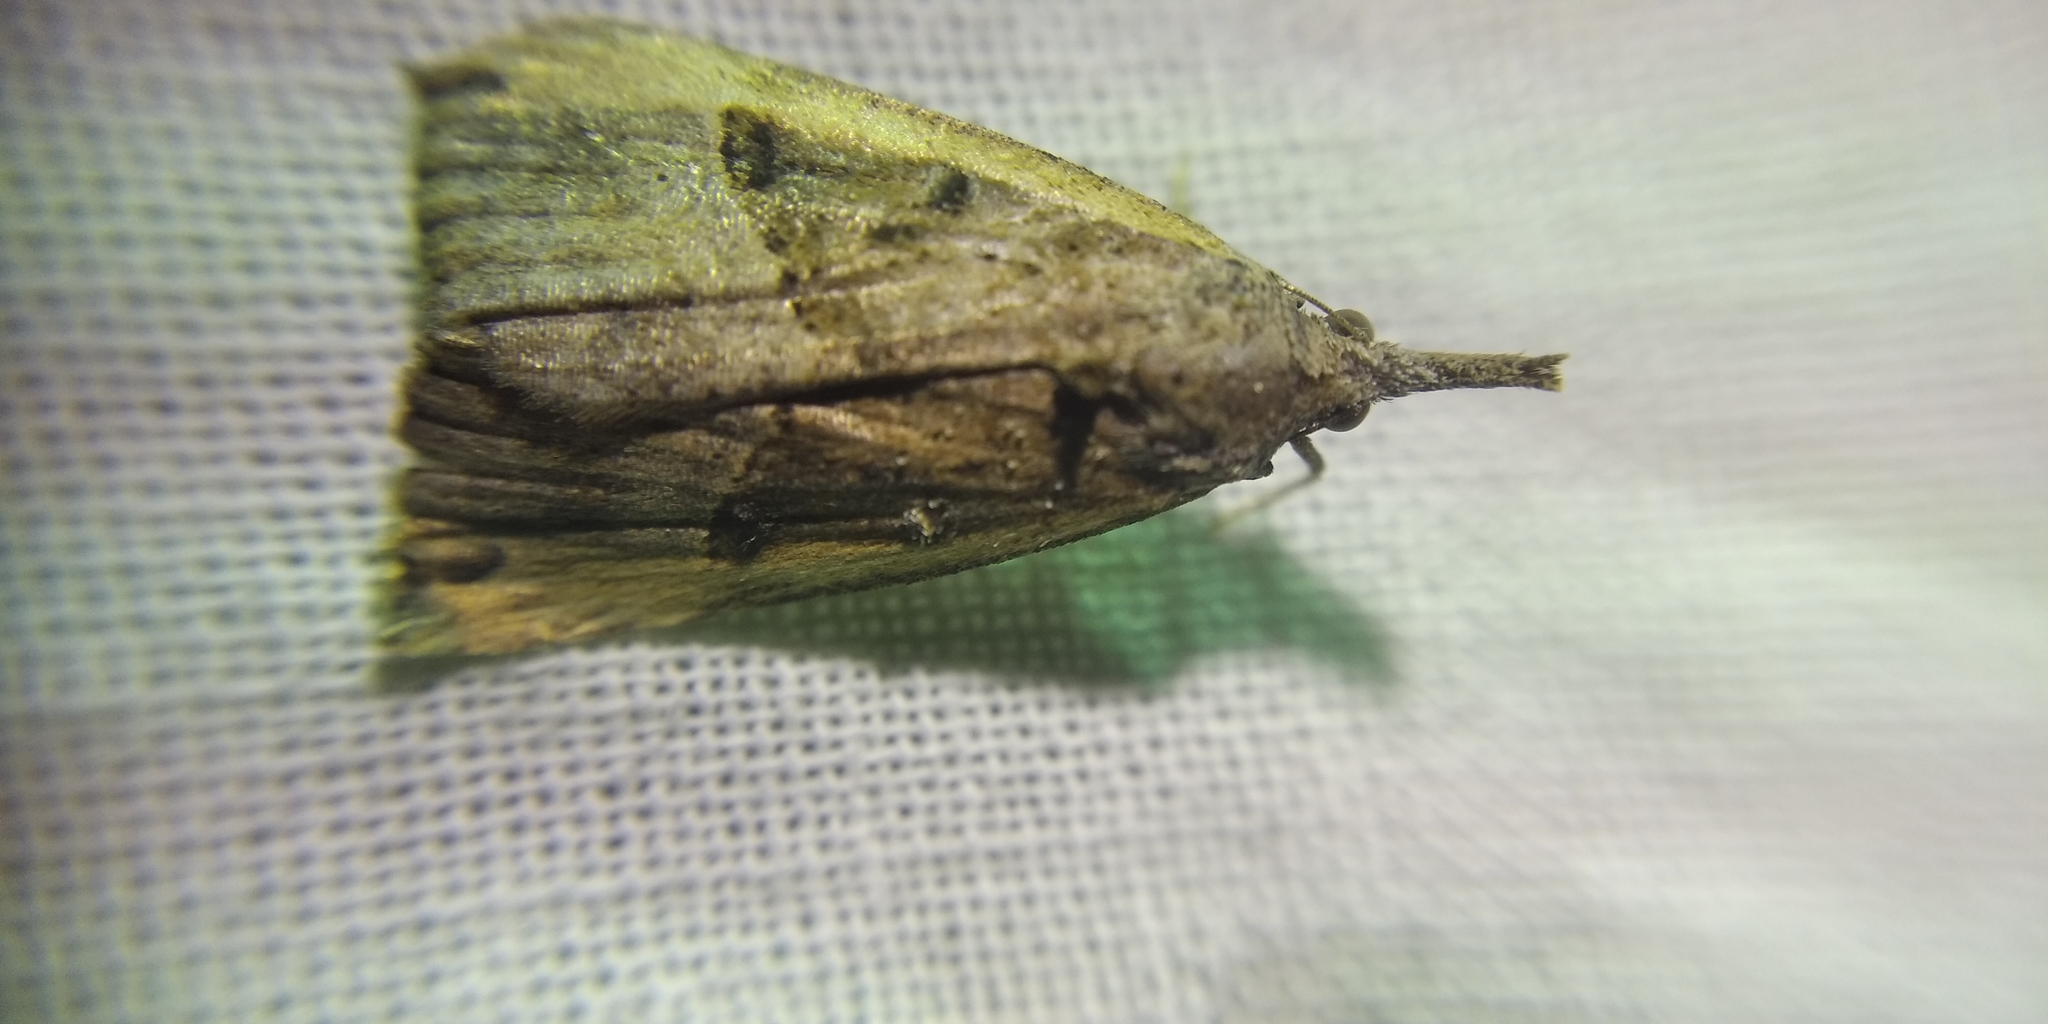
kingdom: Animalia
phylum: Arthropoda
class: Insecta
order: Lepidoptera
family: Erebidae
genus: Hypena
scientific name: Hypena rostralis
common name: Buttoned snout
